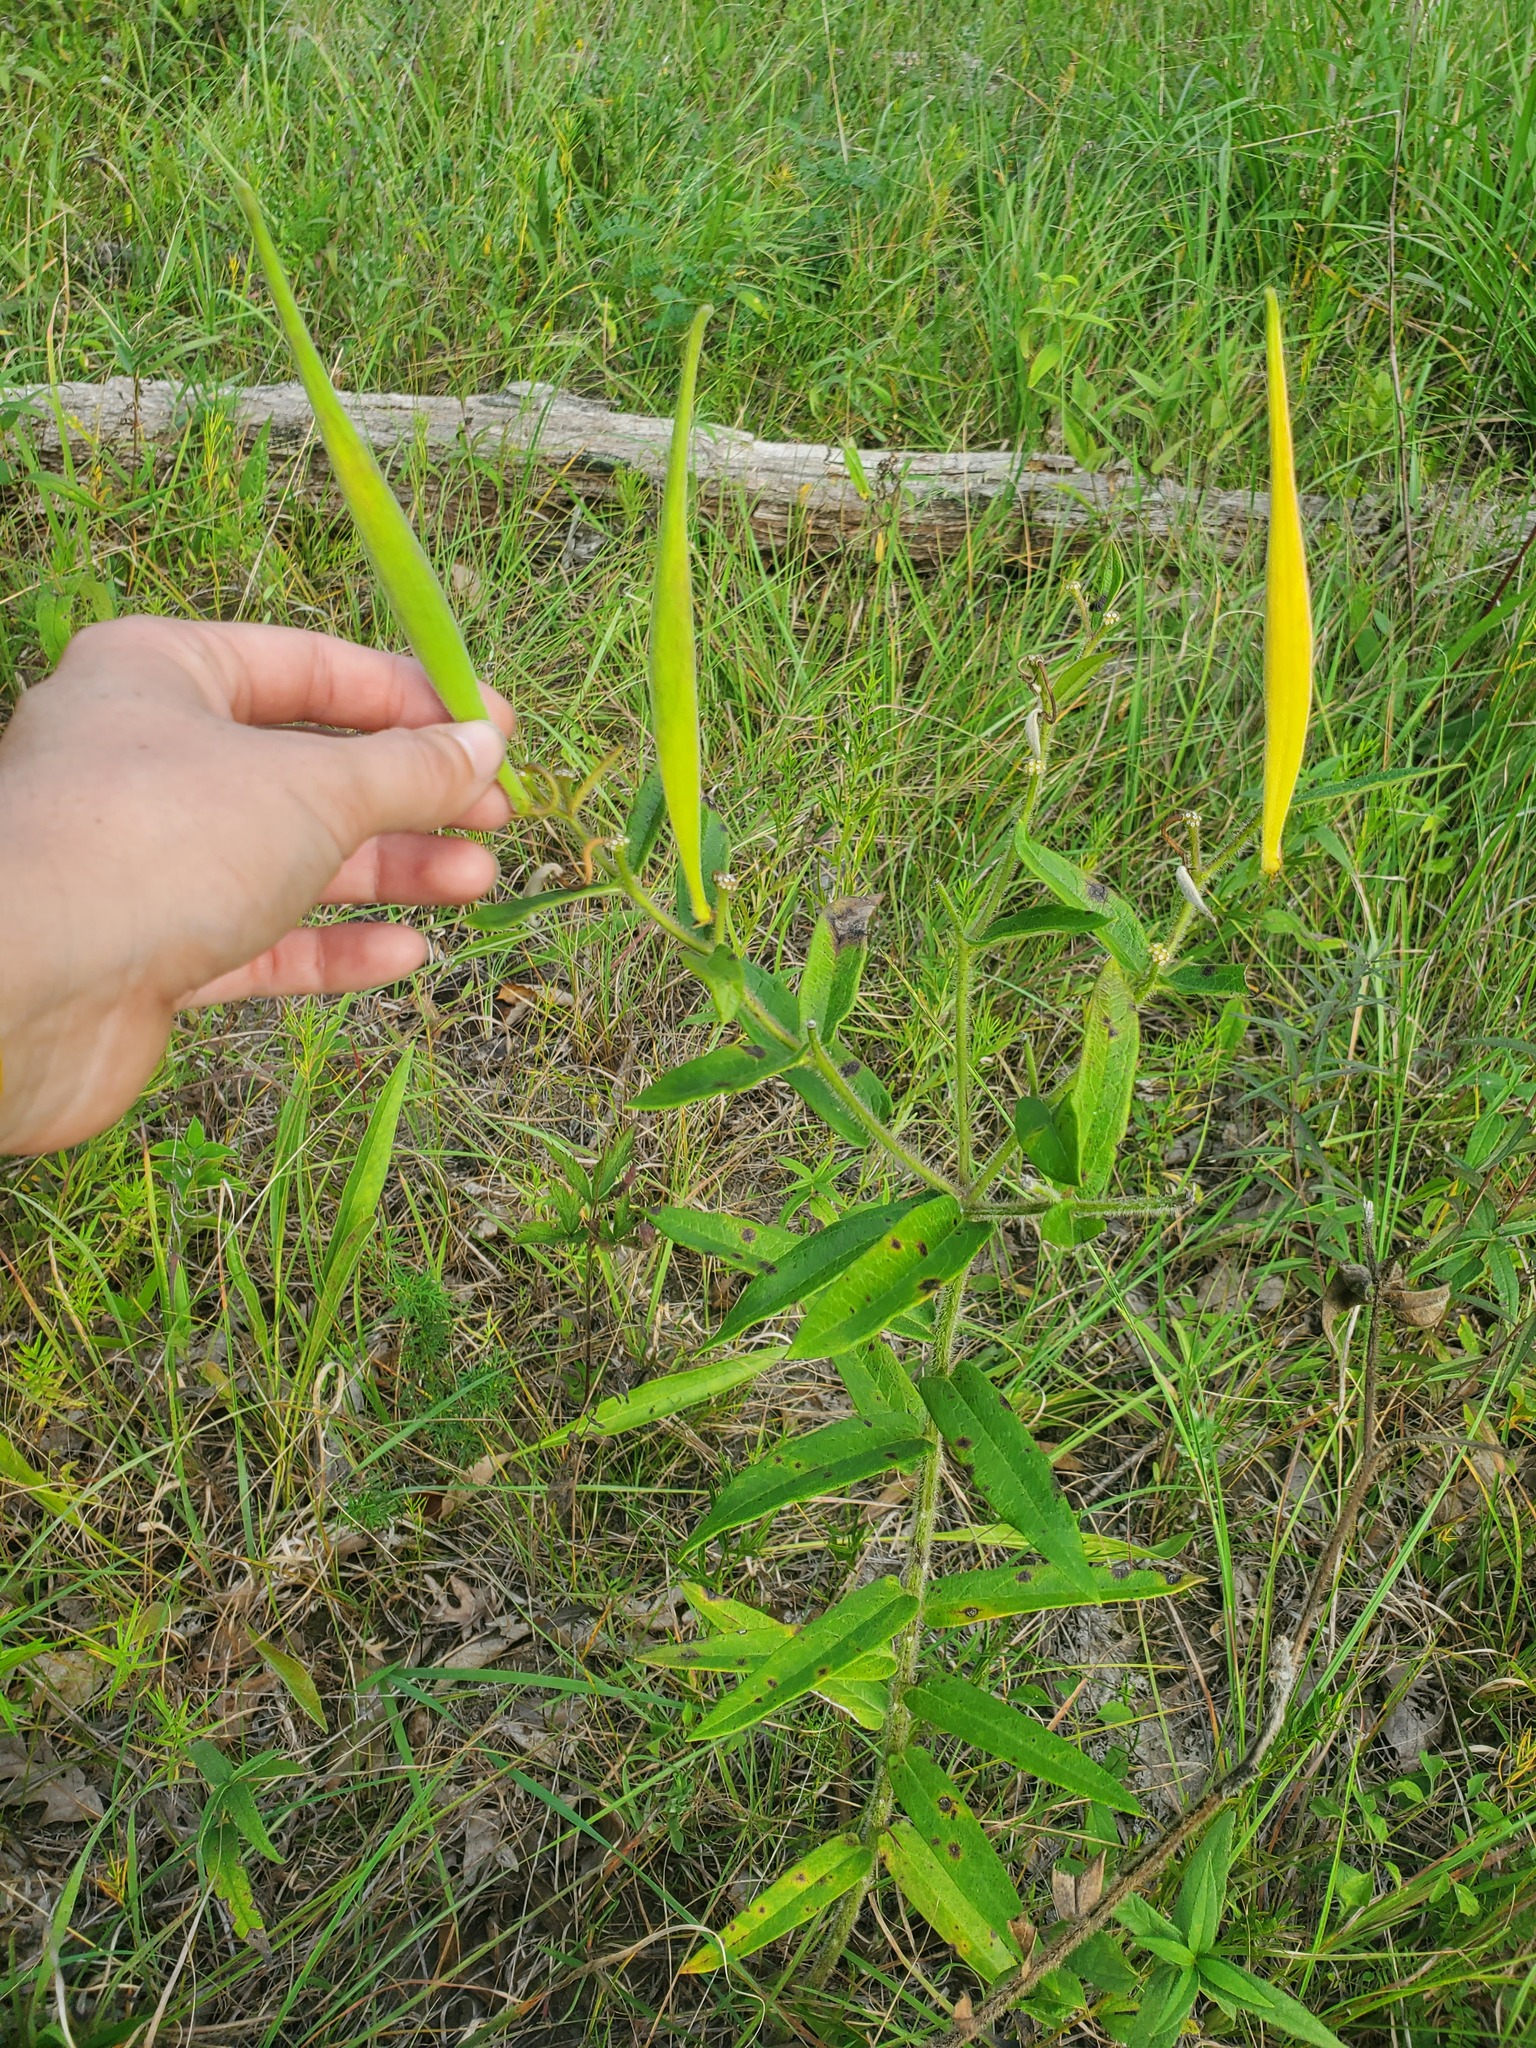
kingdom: Plantae
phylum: Tracheophyta
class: Magnoliopsida
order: Gentianales
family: Apocynaceae
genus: Asclepias
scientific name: Asclepias tuberosa
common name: Butterfly milkweed
